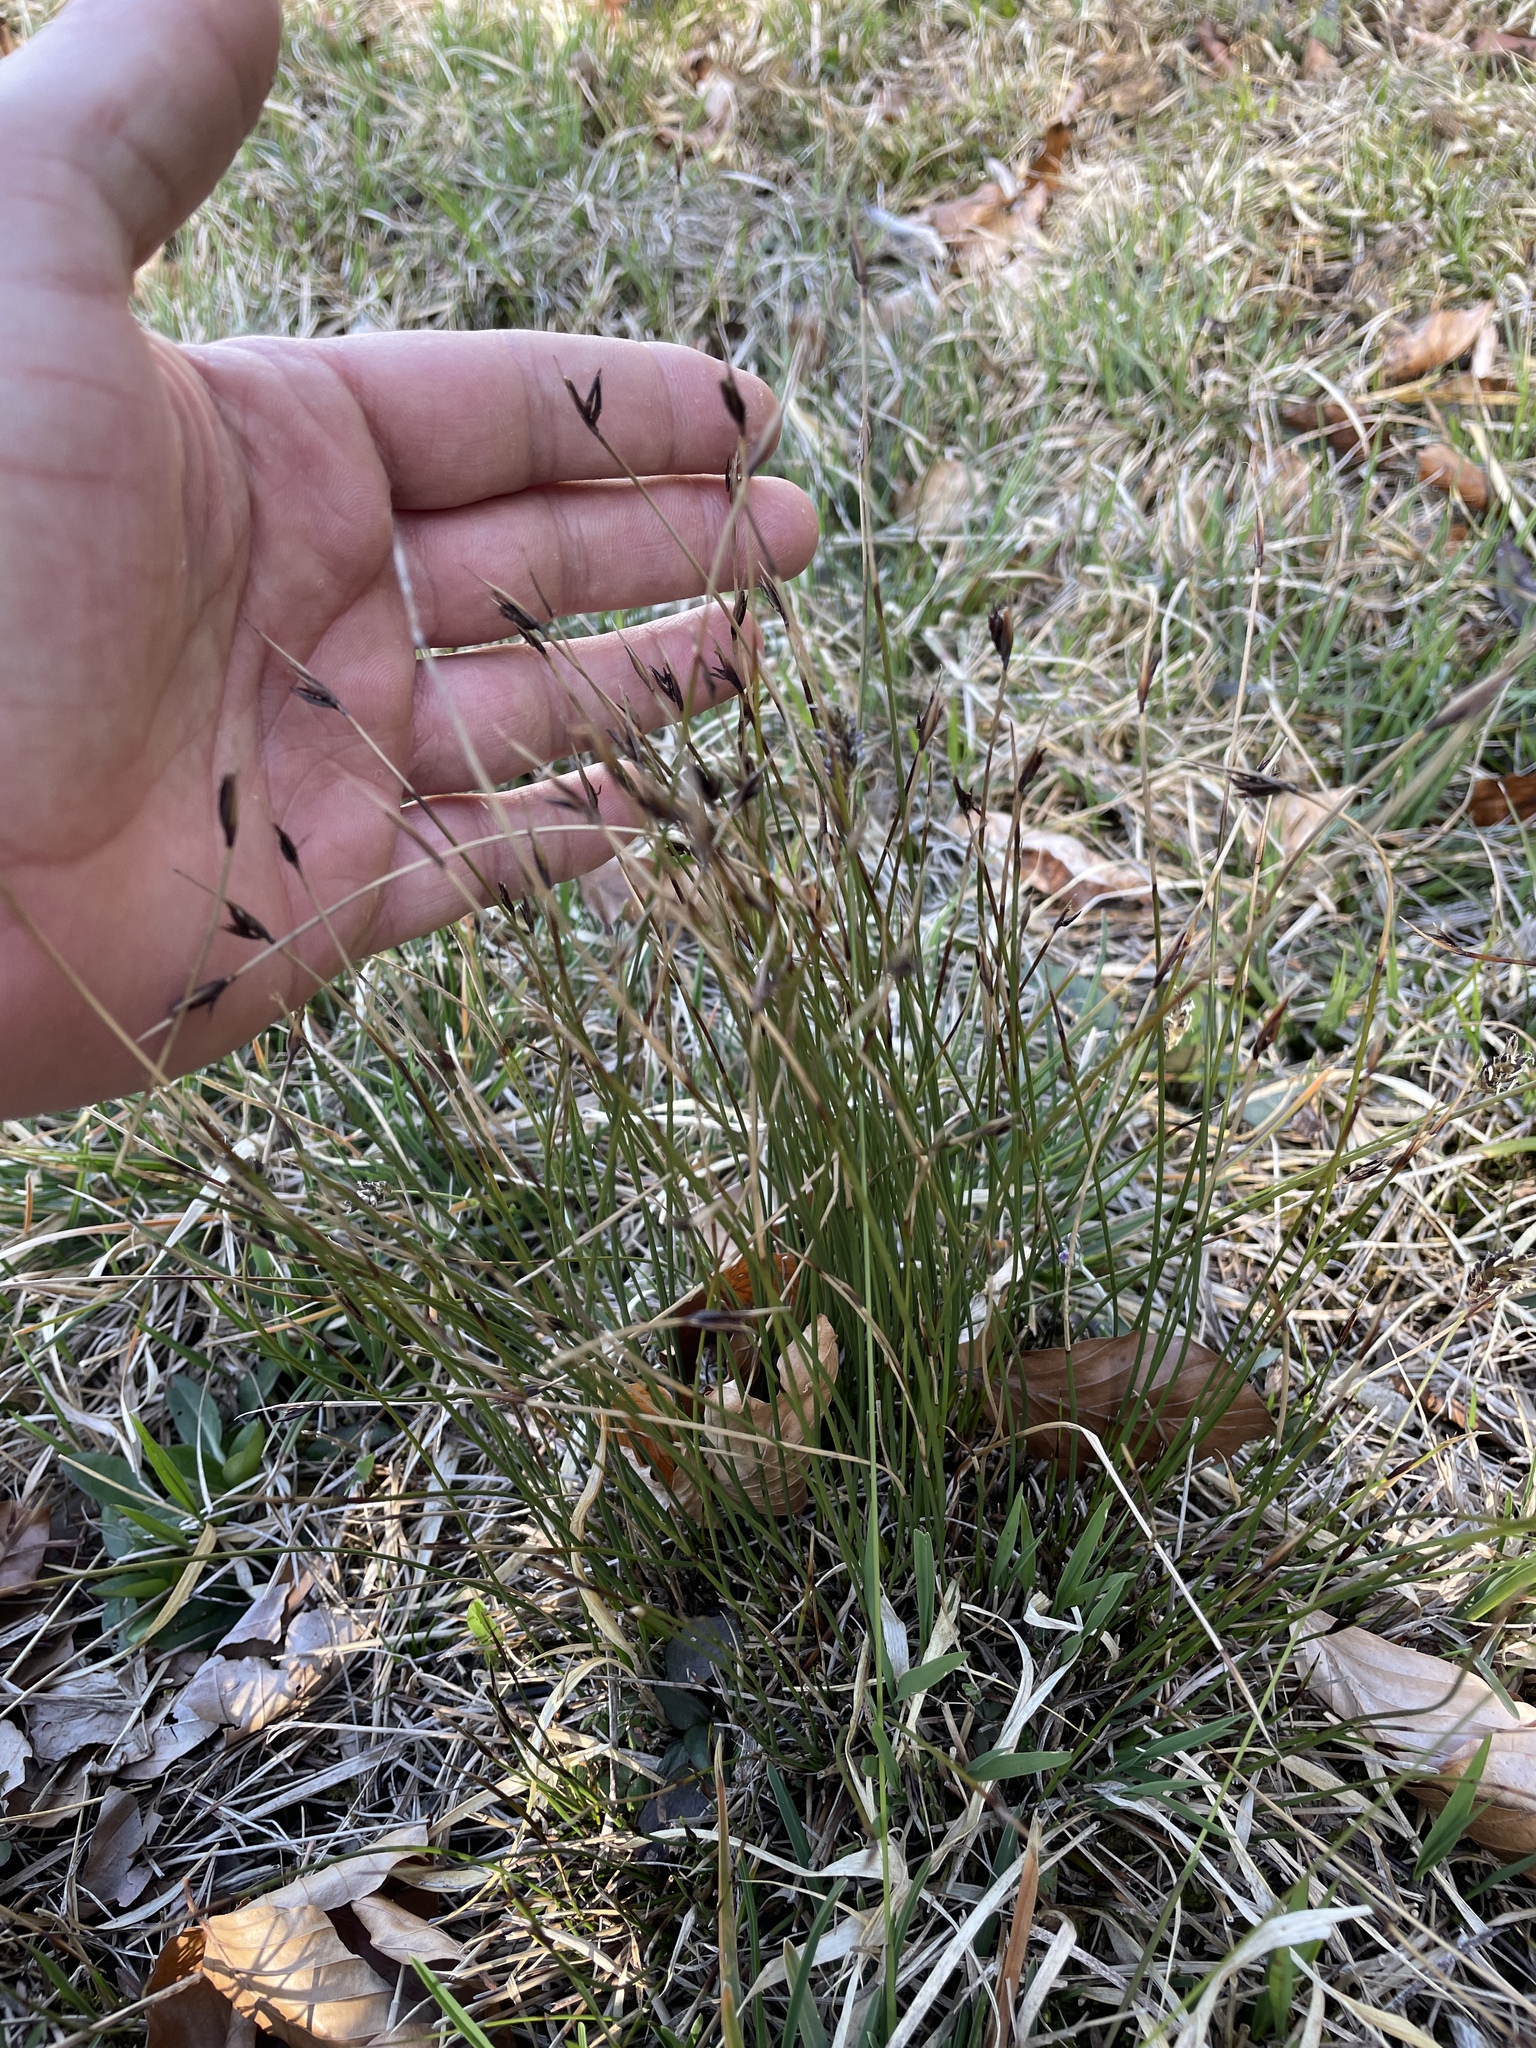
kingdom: Plantae
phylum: Tracheophyta
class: Liliopsida
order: Poales
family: Cyperaceae
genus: Schoenus
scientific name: Schoenus ferrugineus
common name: Brown bog-rush
